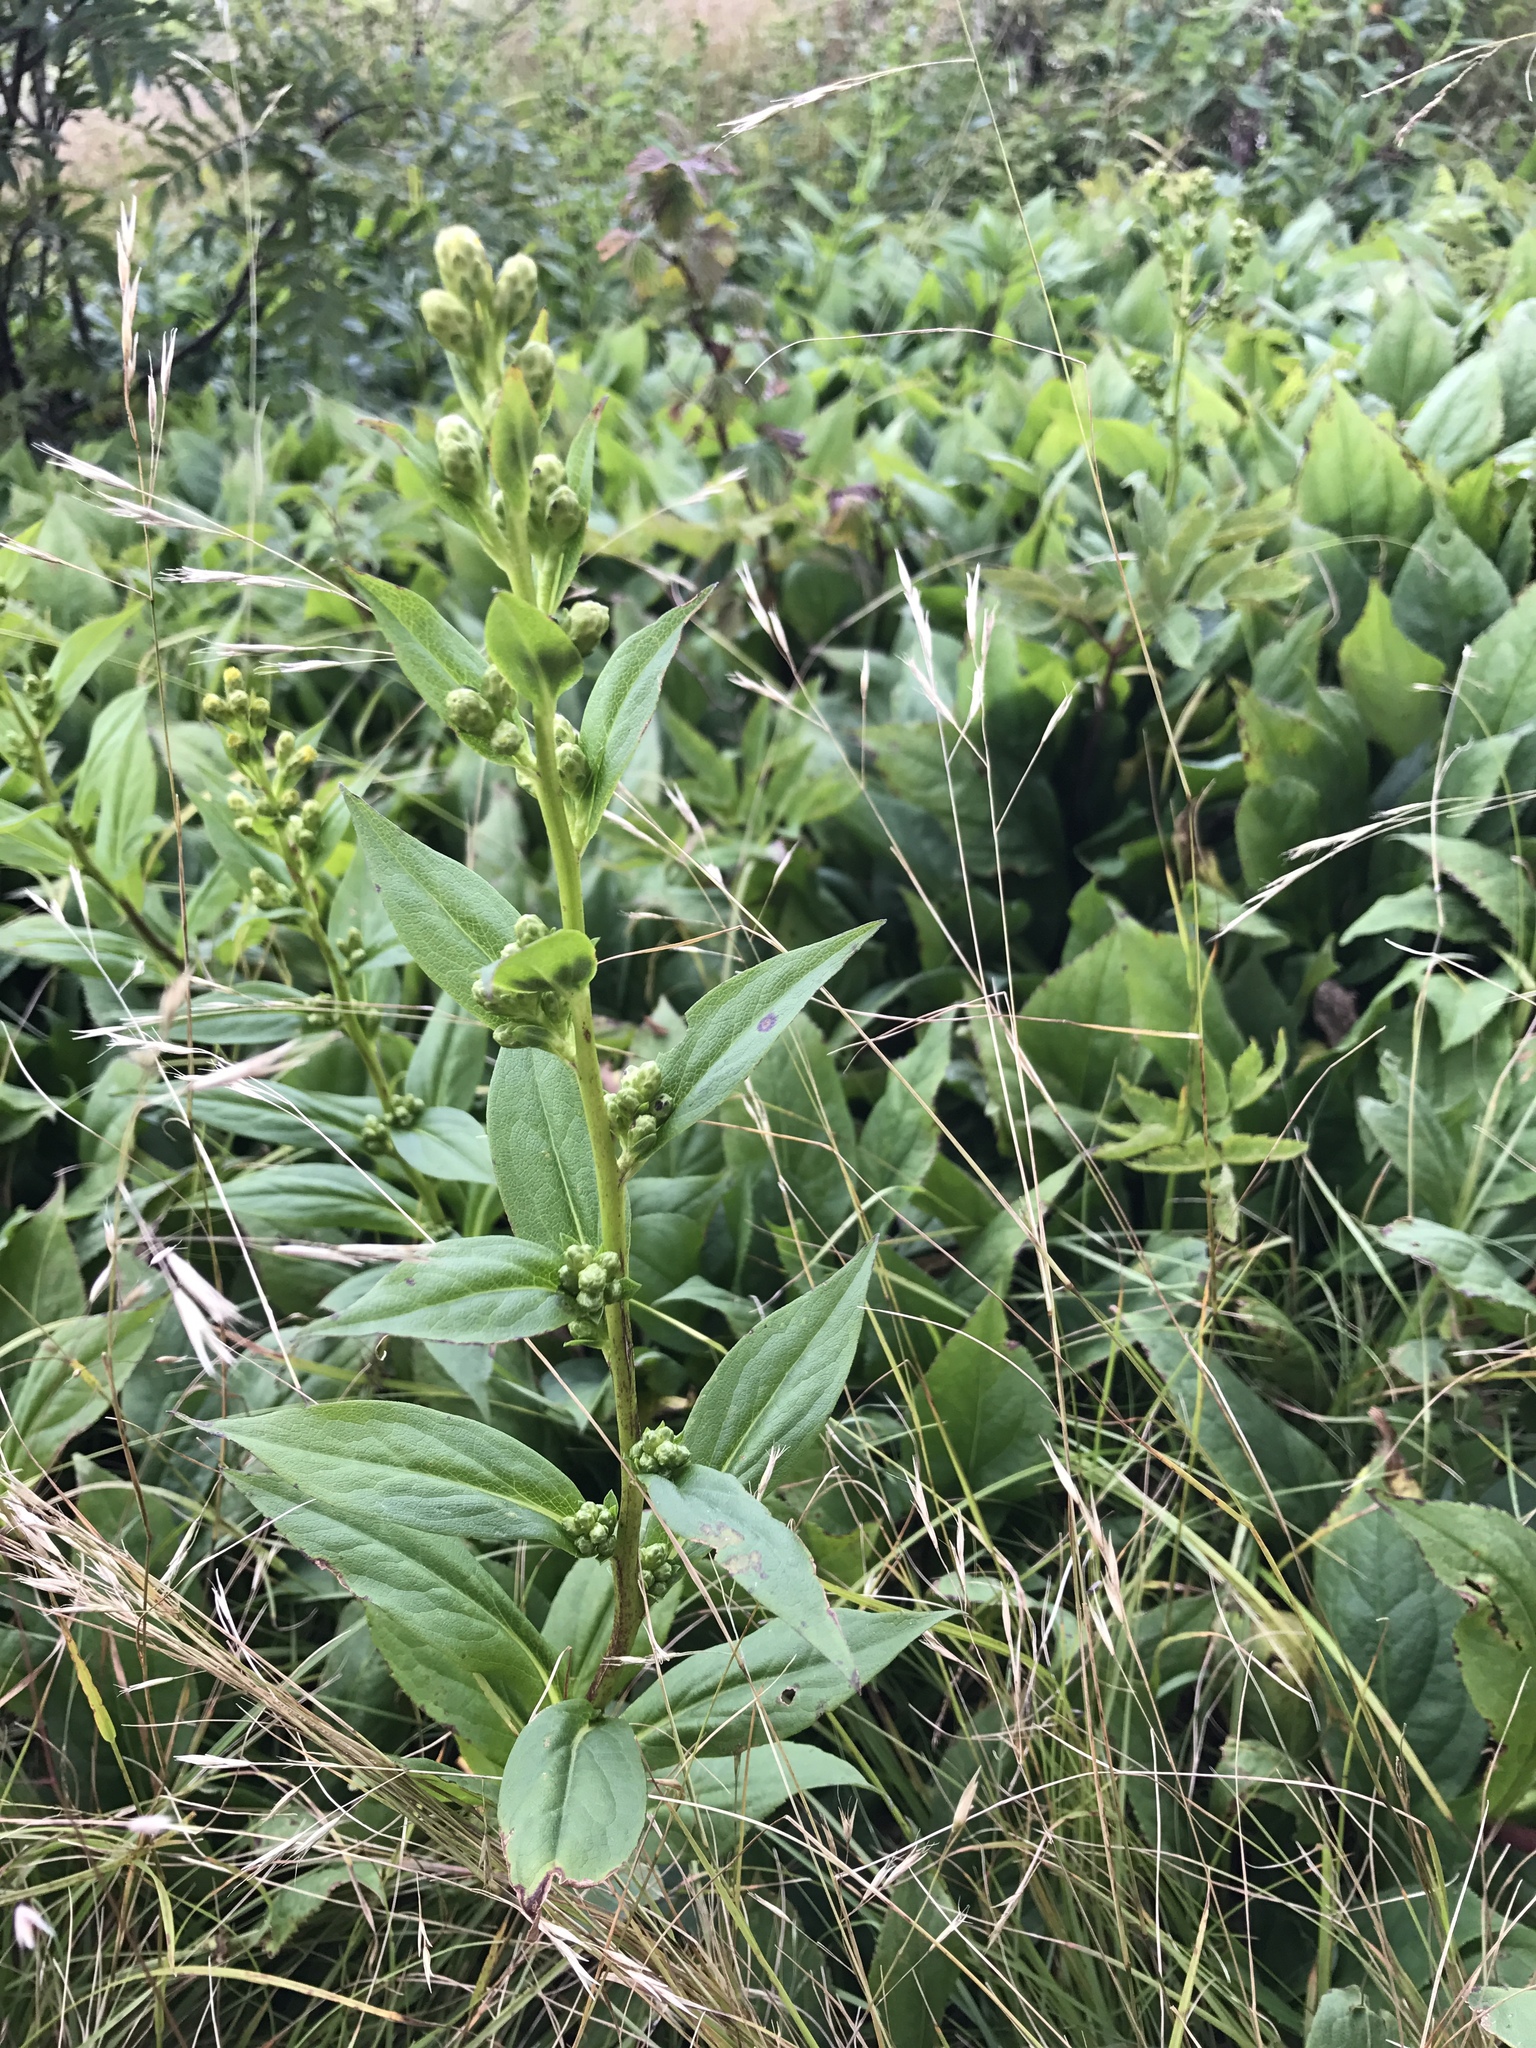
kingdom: Plantae
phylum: Tracheophyta
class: Magnoliopsida
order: Asterales
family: Asteraceae
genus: Solidago
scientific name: Solidago glomerata
